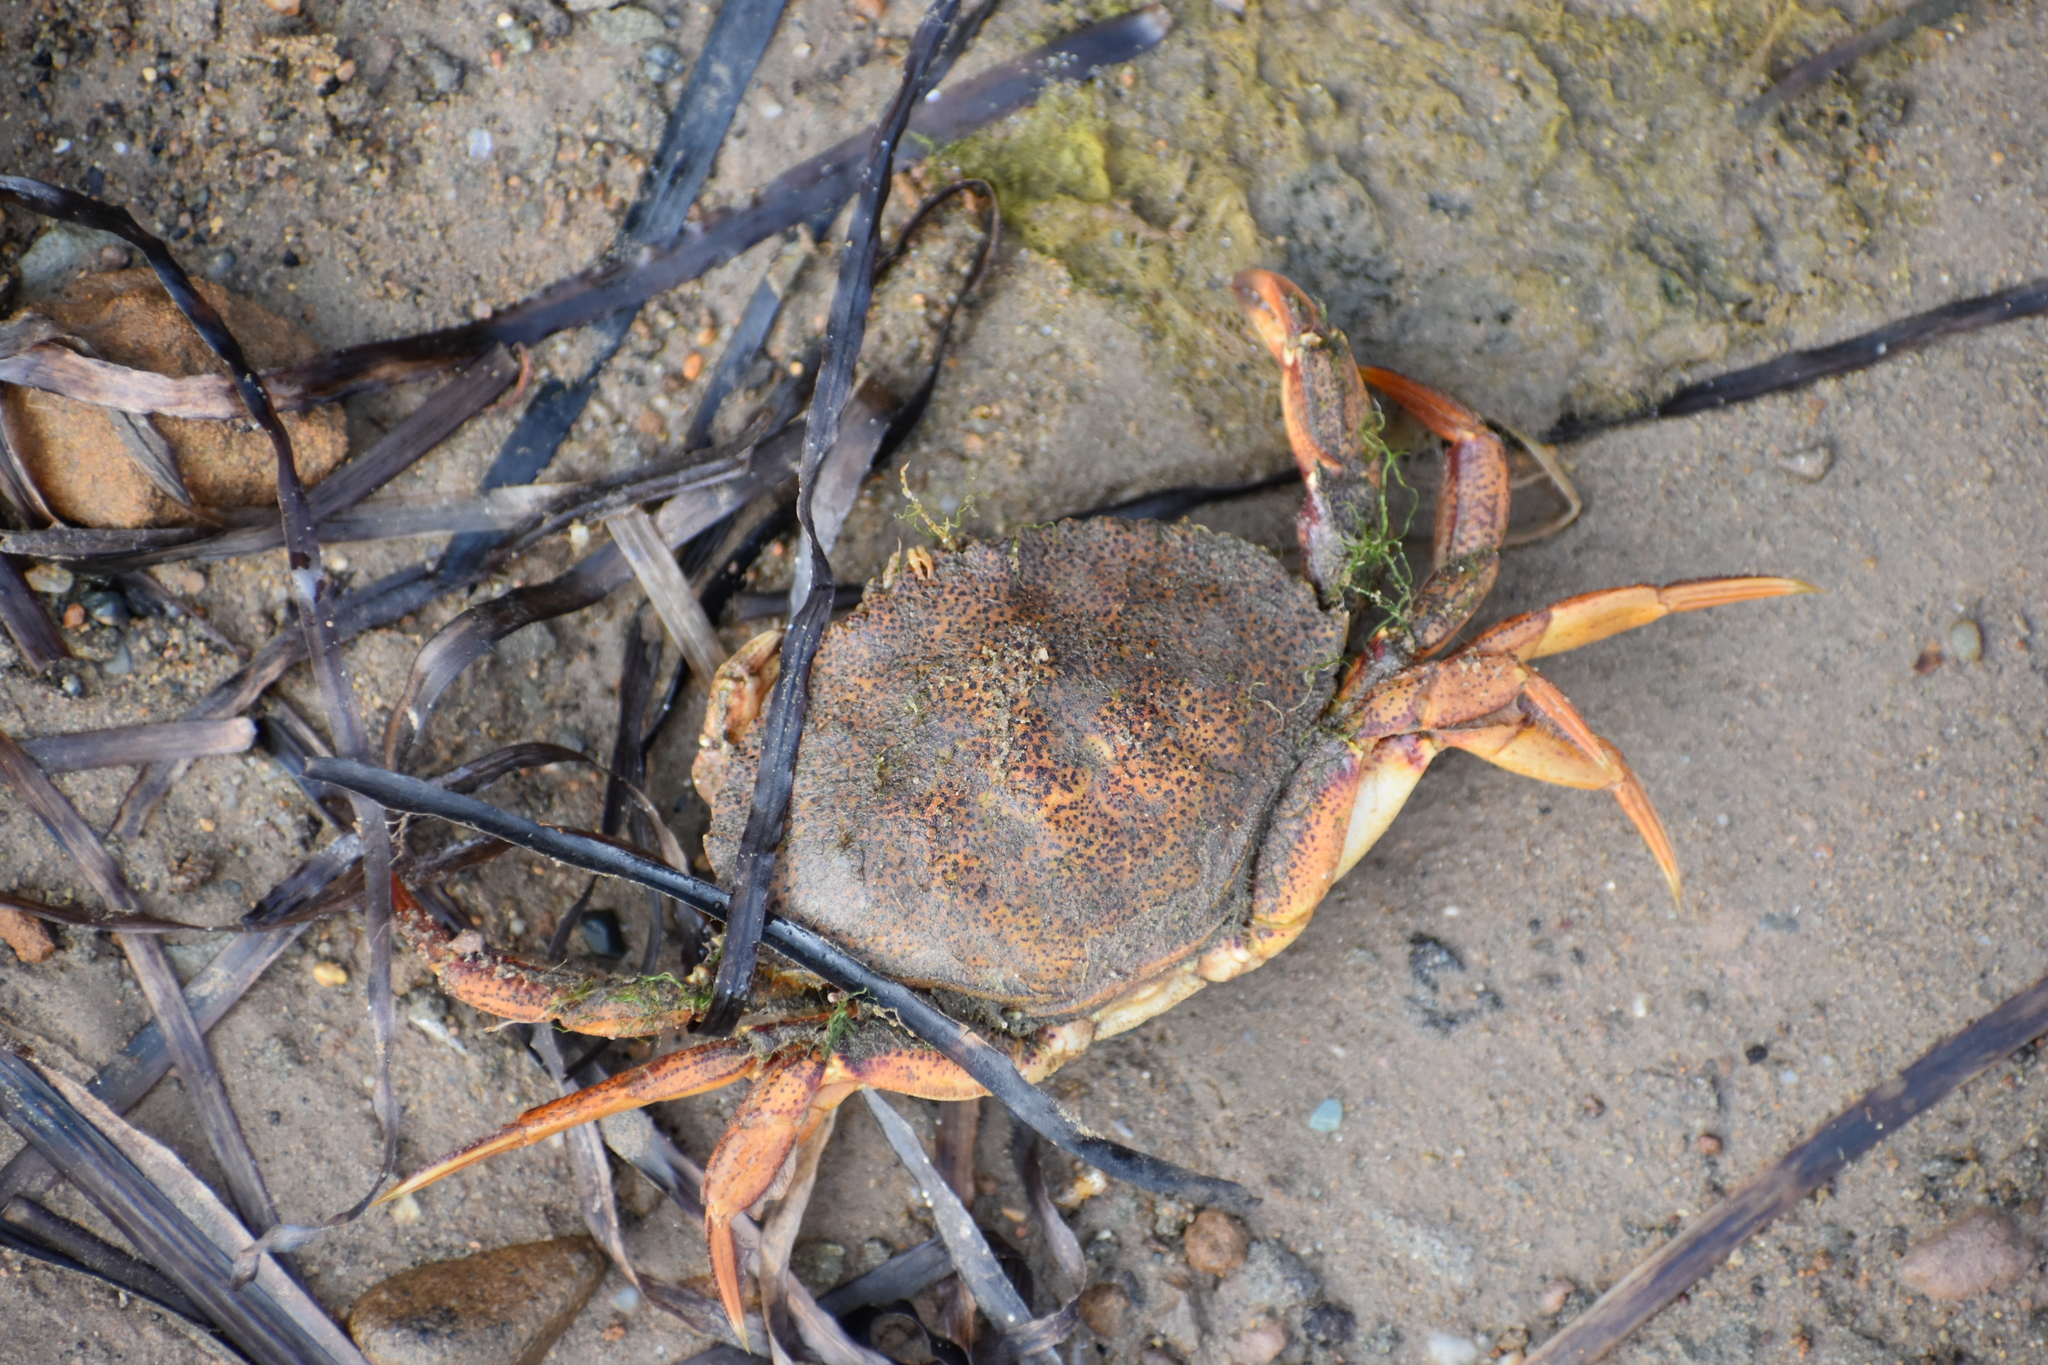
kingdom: Animalia
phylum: Arthropoda
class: Malacostraca
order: Decapoda
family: Cancridae
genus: Cancer
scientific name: Cancer irroratus
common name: Atlantic rock crab
